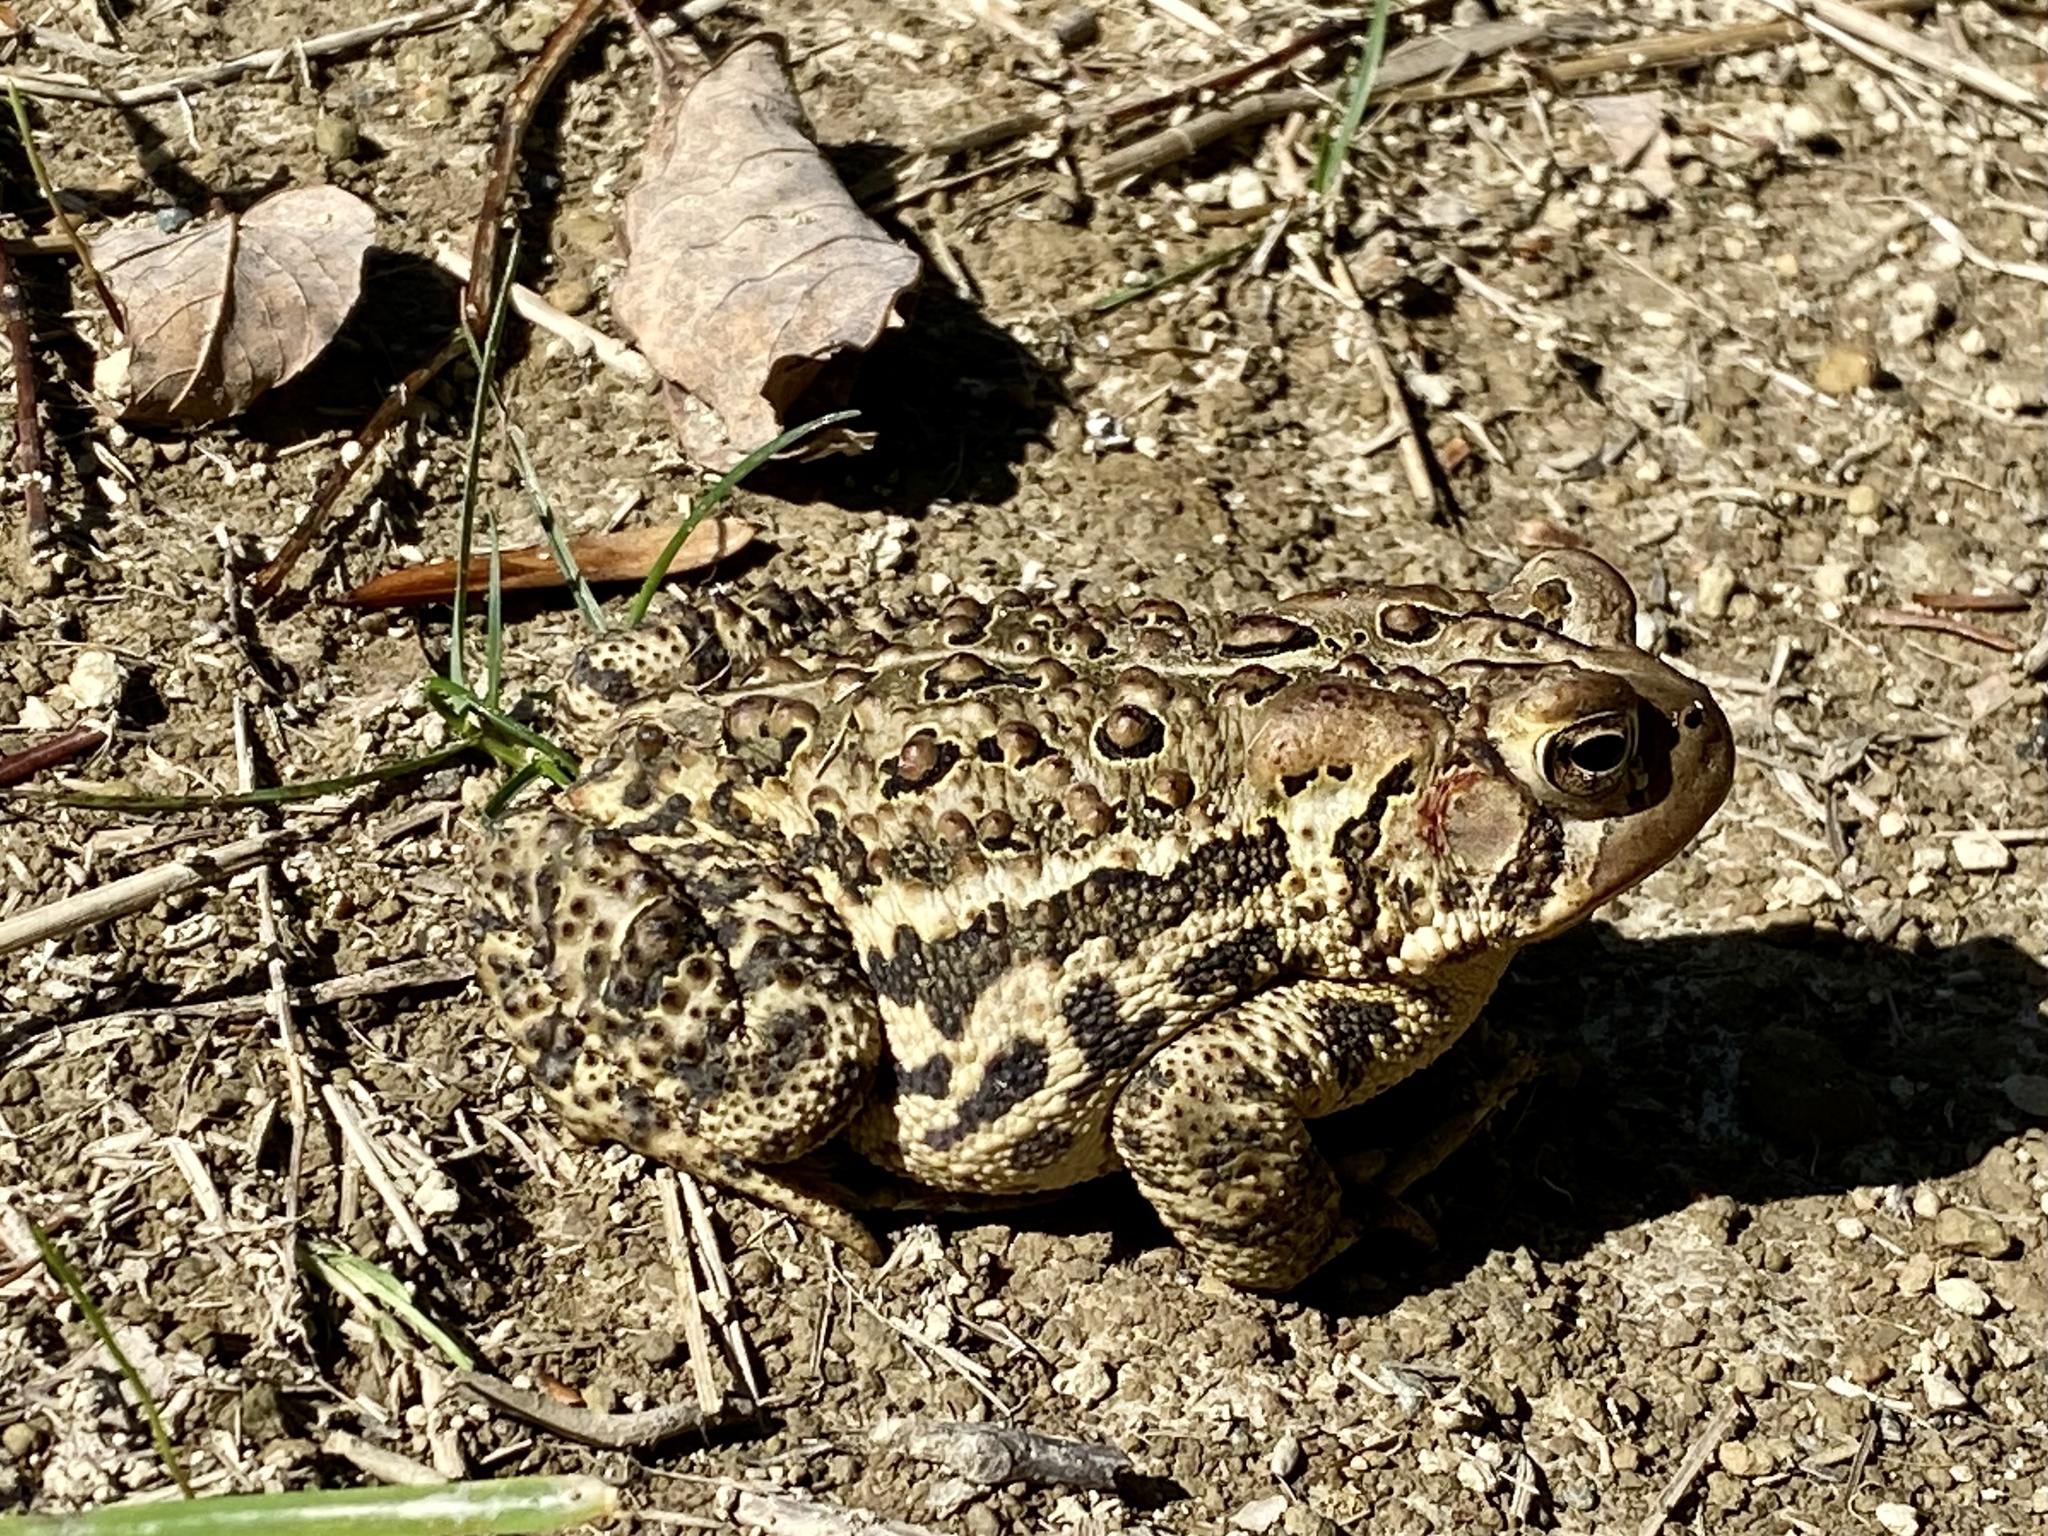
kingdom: Animalia
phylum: Chordata
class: Amphibia
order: Anura
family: Bufonidae
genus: Anaxyrus
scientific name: Anaxyrus americanus
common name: American toad
